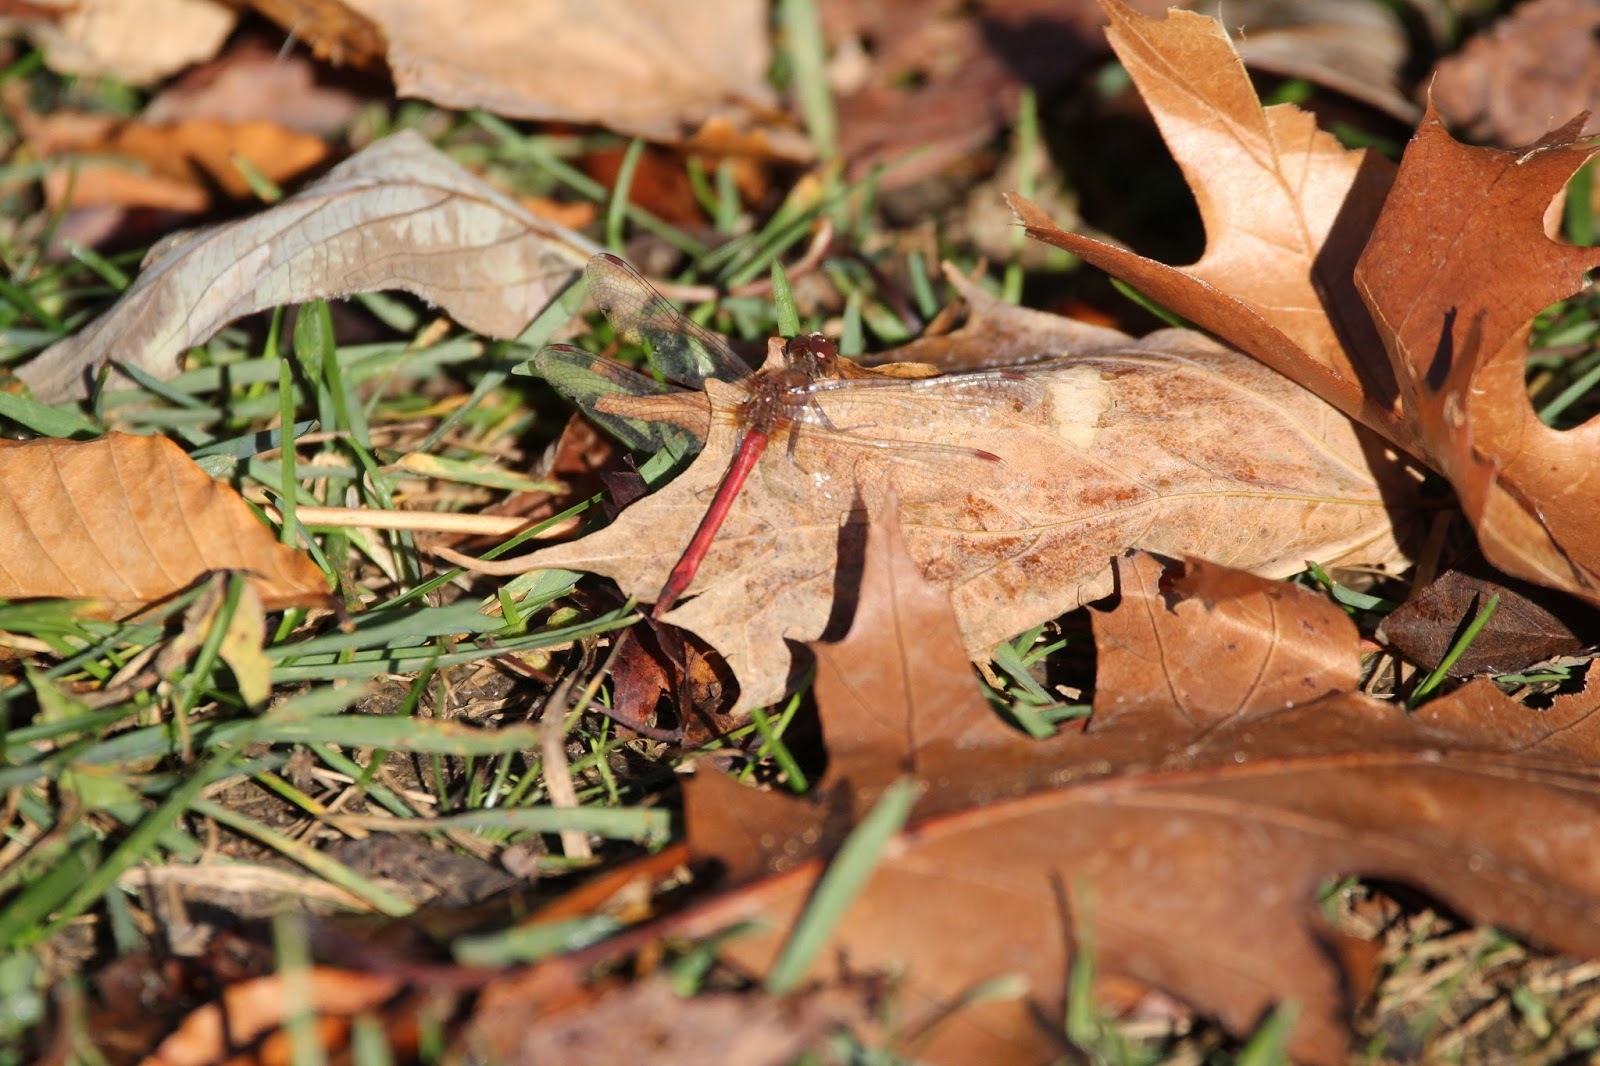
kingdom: Animalia
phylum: Arthropoda
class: Insecta
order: Odonata
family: Libellulidae
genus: Sympetrum
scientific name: Sympetrum vicinum
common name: Autumn meadowhawk
